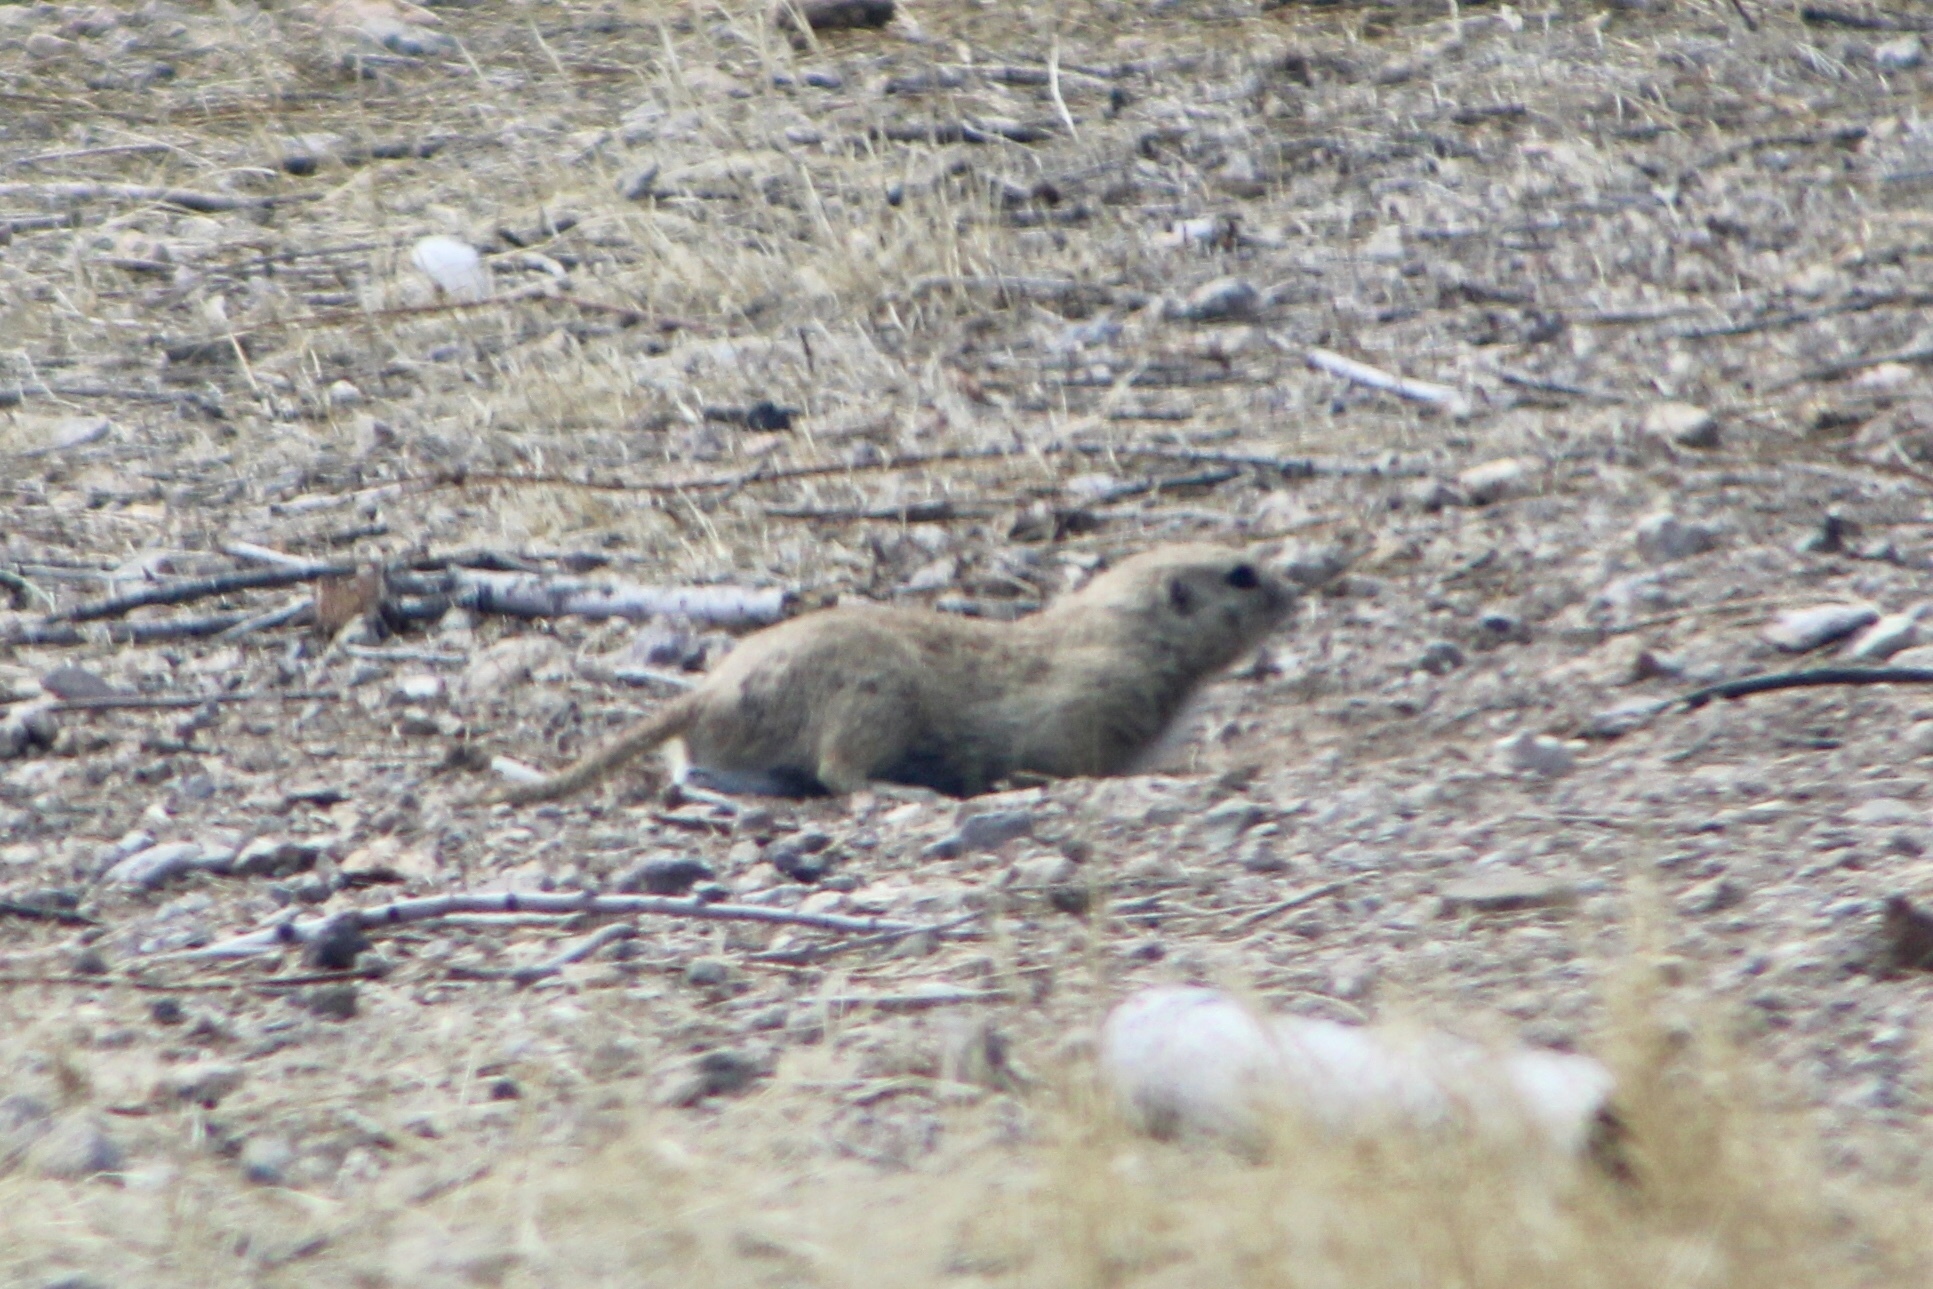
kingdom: Animalia
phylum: Chordata
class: Mammalia
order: Rodentia
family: Sciuridae
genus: Xerospermophilus
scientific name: Xerospermophilus tereticaudus
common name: Round-tailed ground squirrel
